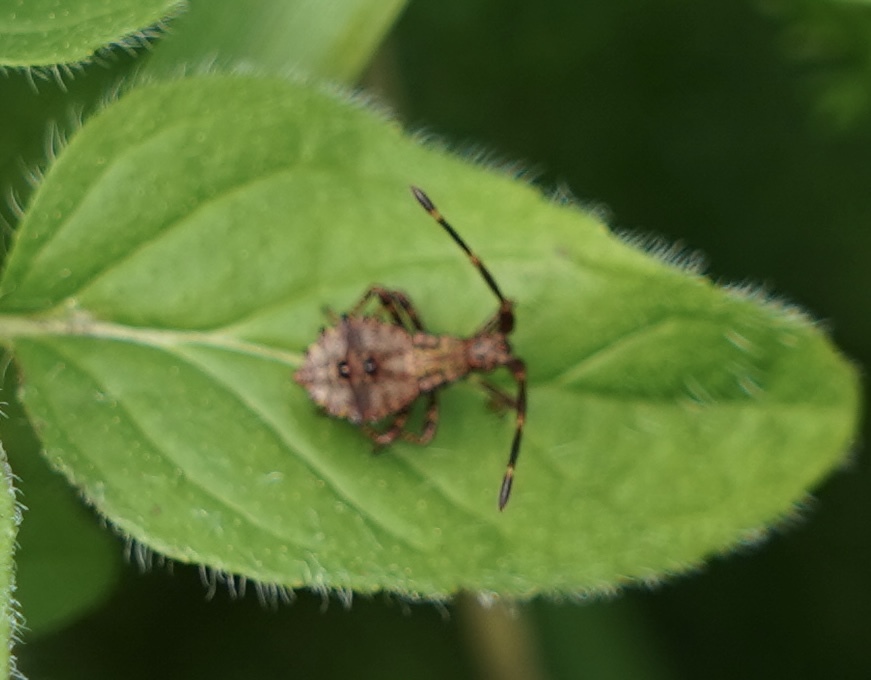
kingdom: Animalia
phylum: Arthropoda
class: Insecta
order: Hemiptera
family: Coreidae
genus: Coreus
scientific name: Coreus marginatus
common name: Dock bug
